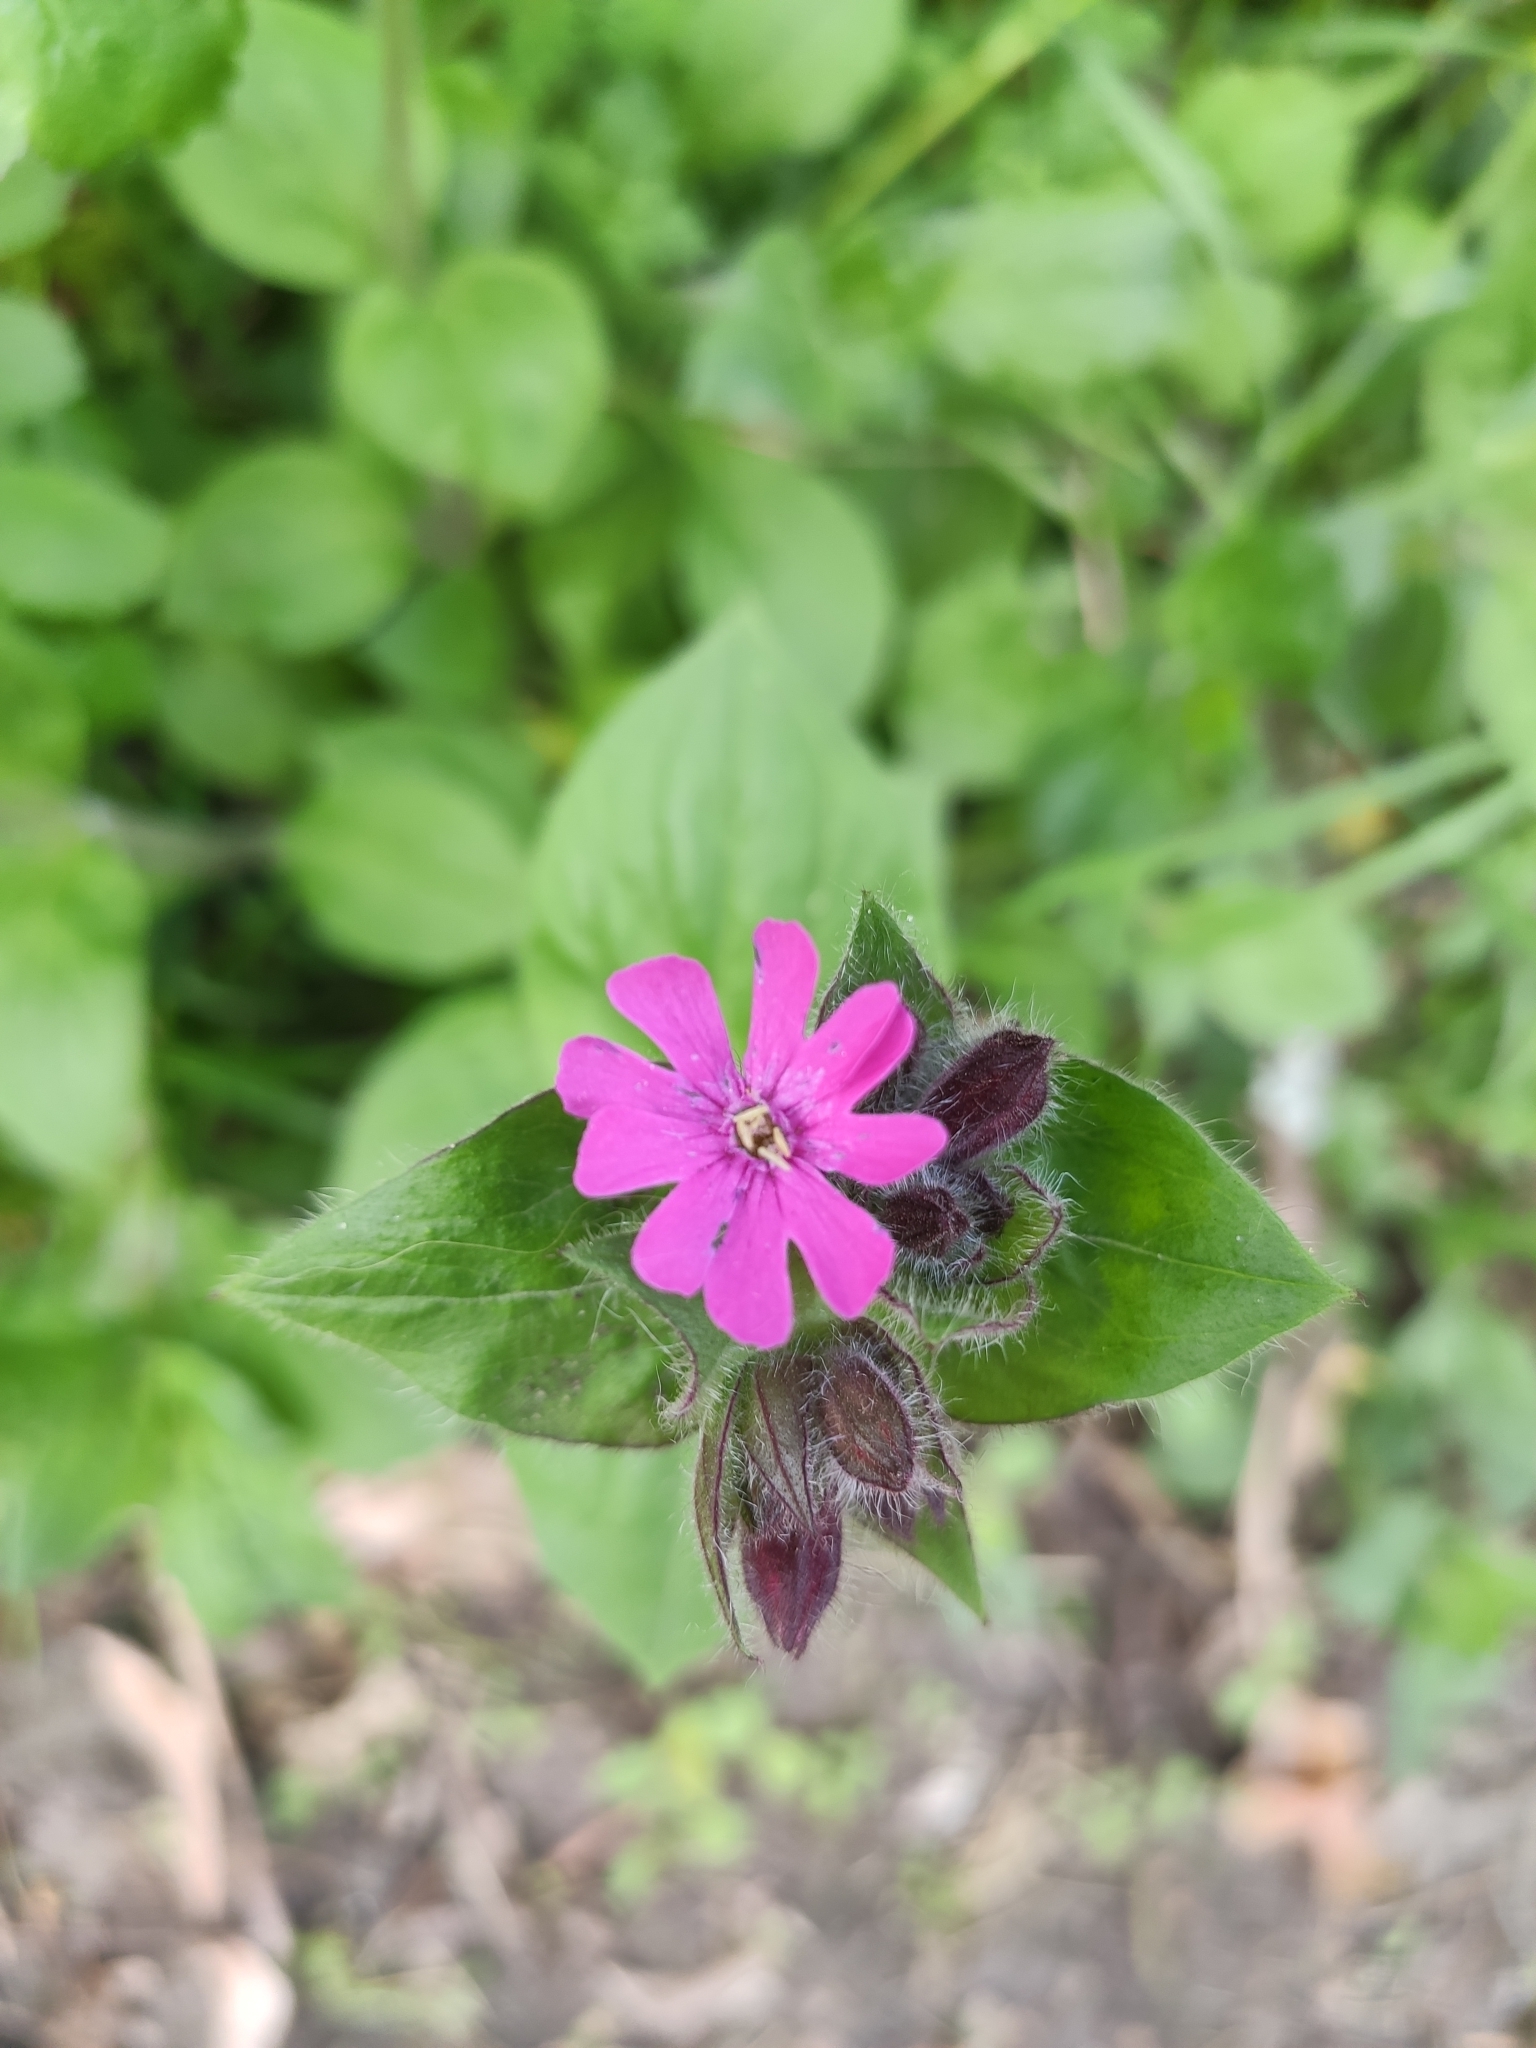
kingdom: Plantae
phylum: Tracheophyta
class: Magnoliopsida
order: Caryophyllales
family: Caryophyllaceae
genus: Silene
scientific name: Silene dioica
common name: Red campion
